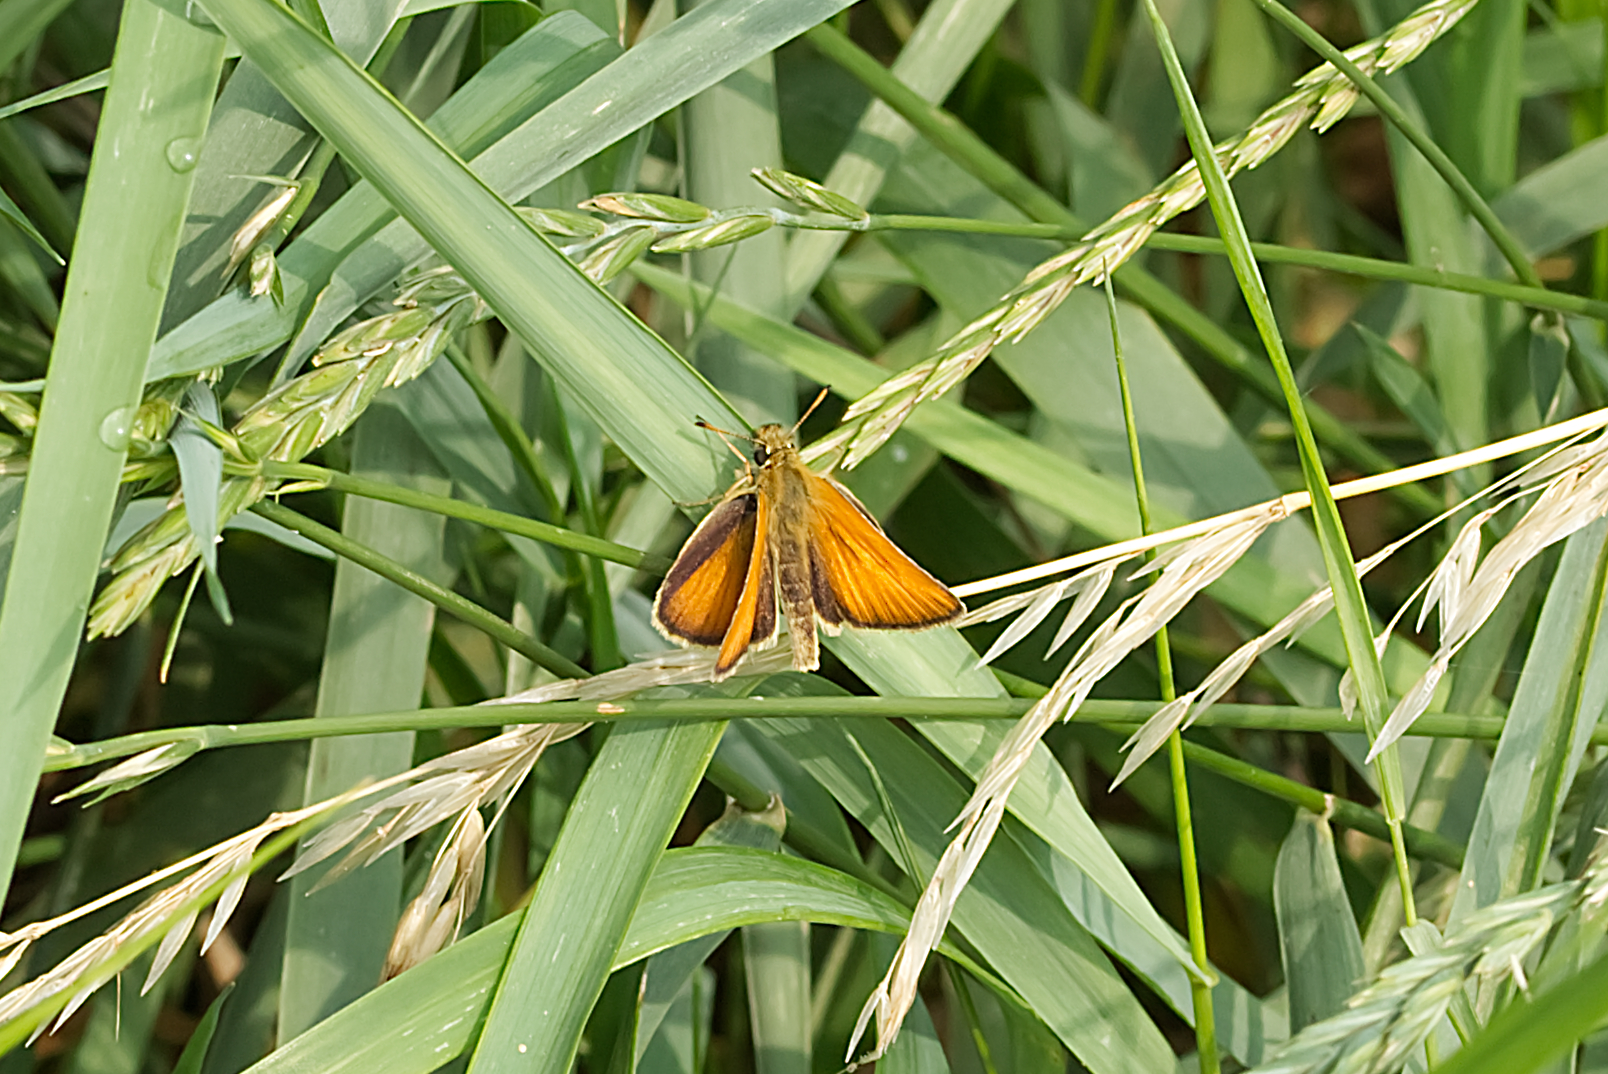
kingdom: Animalia
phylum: Arthropoda
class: Insecta
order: Lepidoptera
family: Hesperiidae
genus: Thymelicus
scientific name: Thymelicus lineola
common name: Essex skipper
